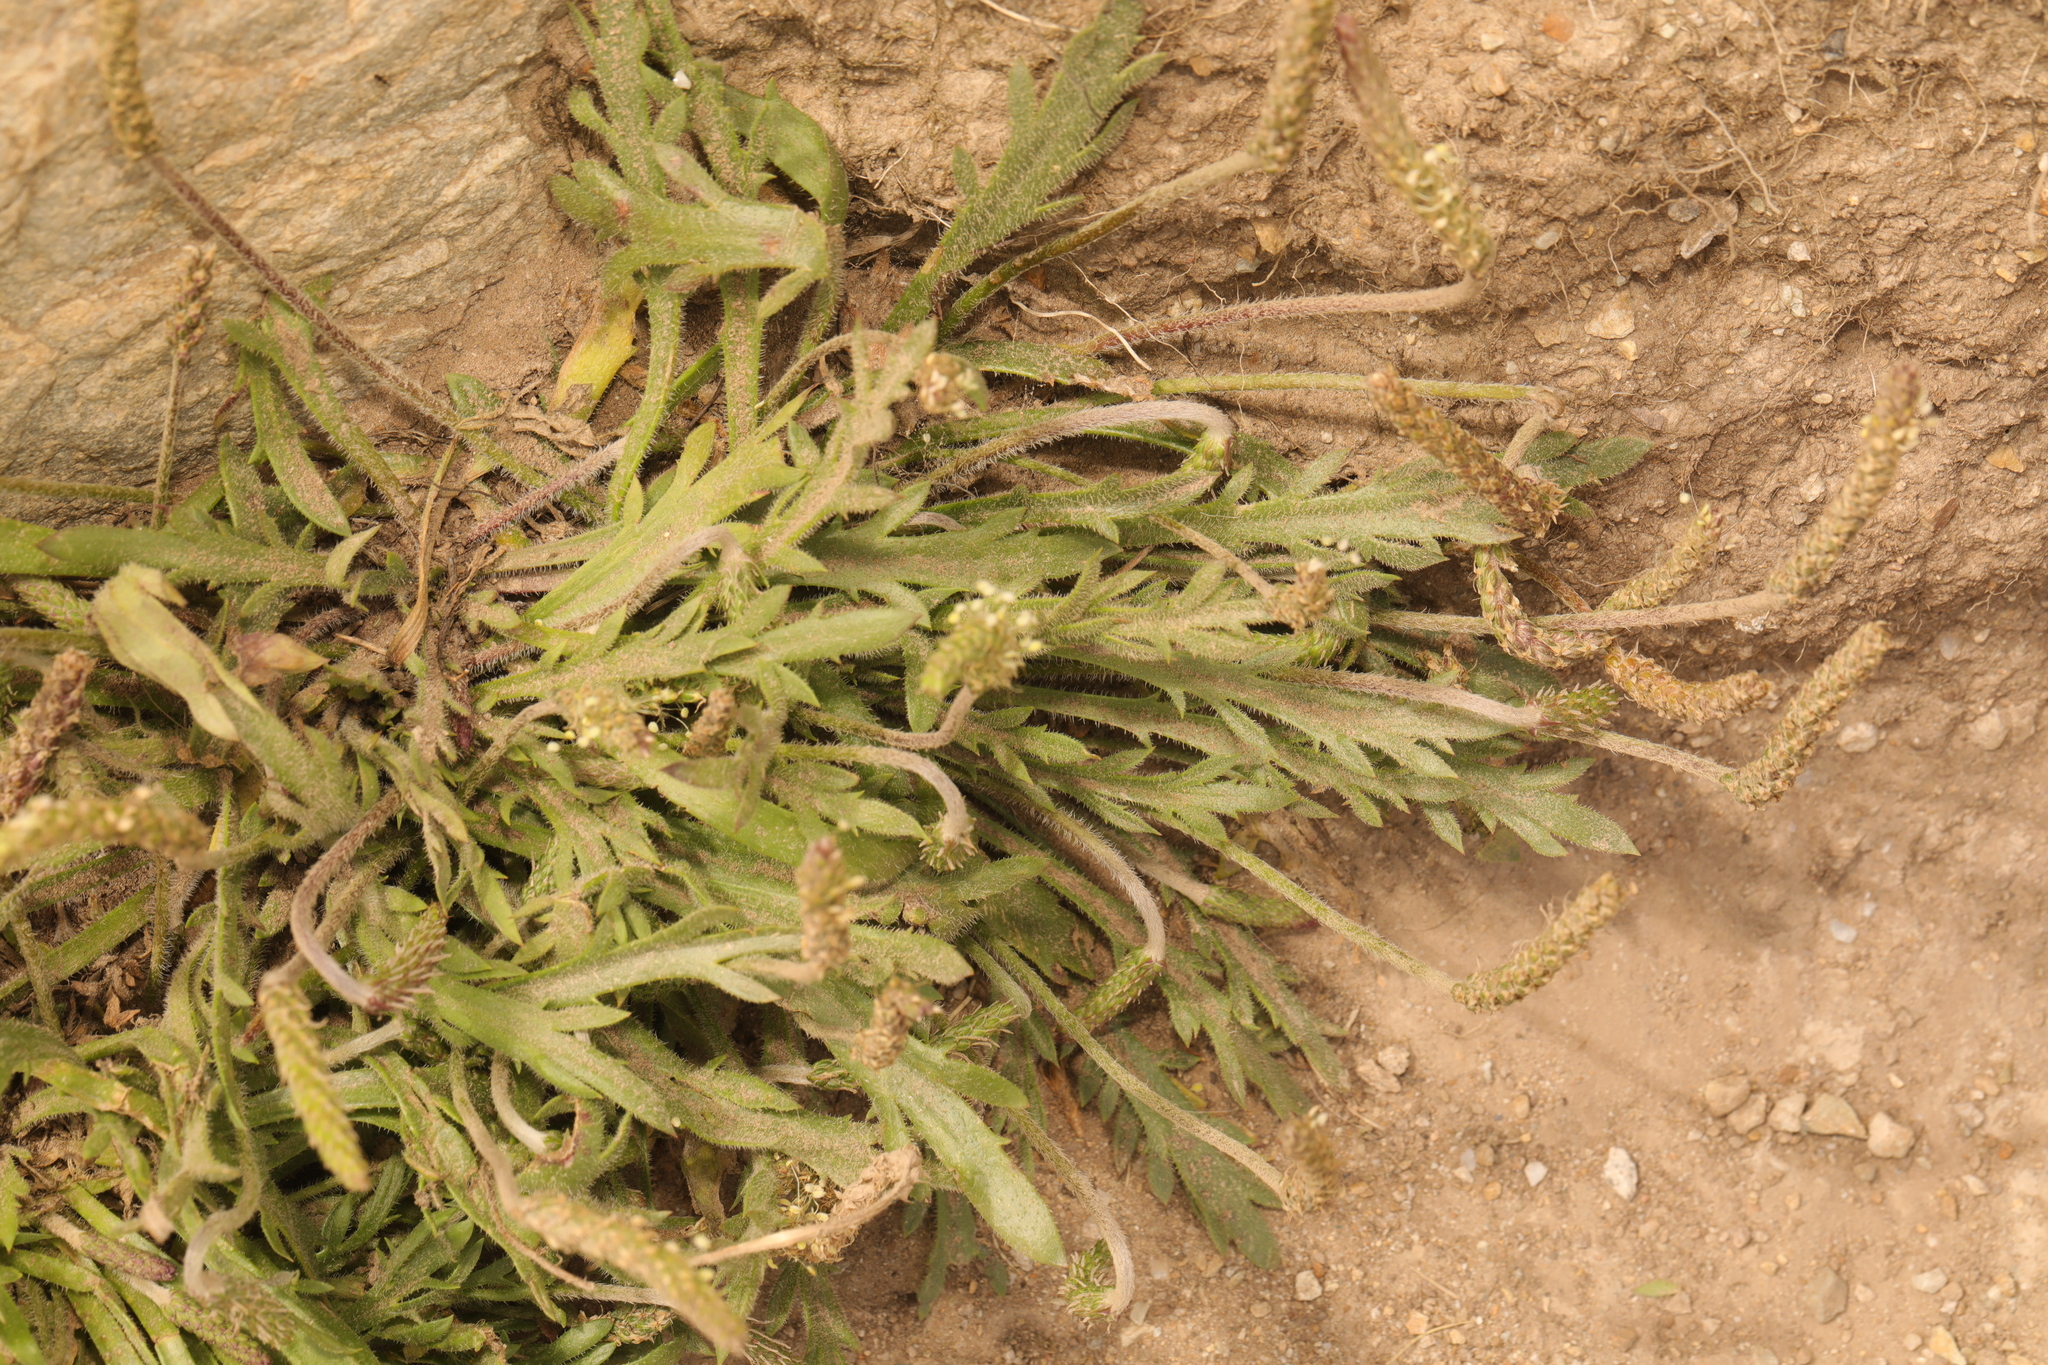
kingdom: Plantae
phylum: Tracheophyta
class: Magnoliopsida
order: Lamiales
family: Plantaginaceae
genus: Plantago
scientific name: Plantago coronopus
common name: Buck's-horn plantain
